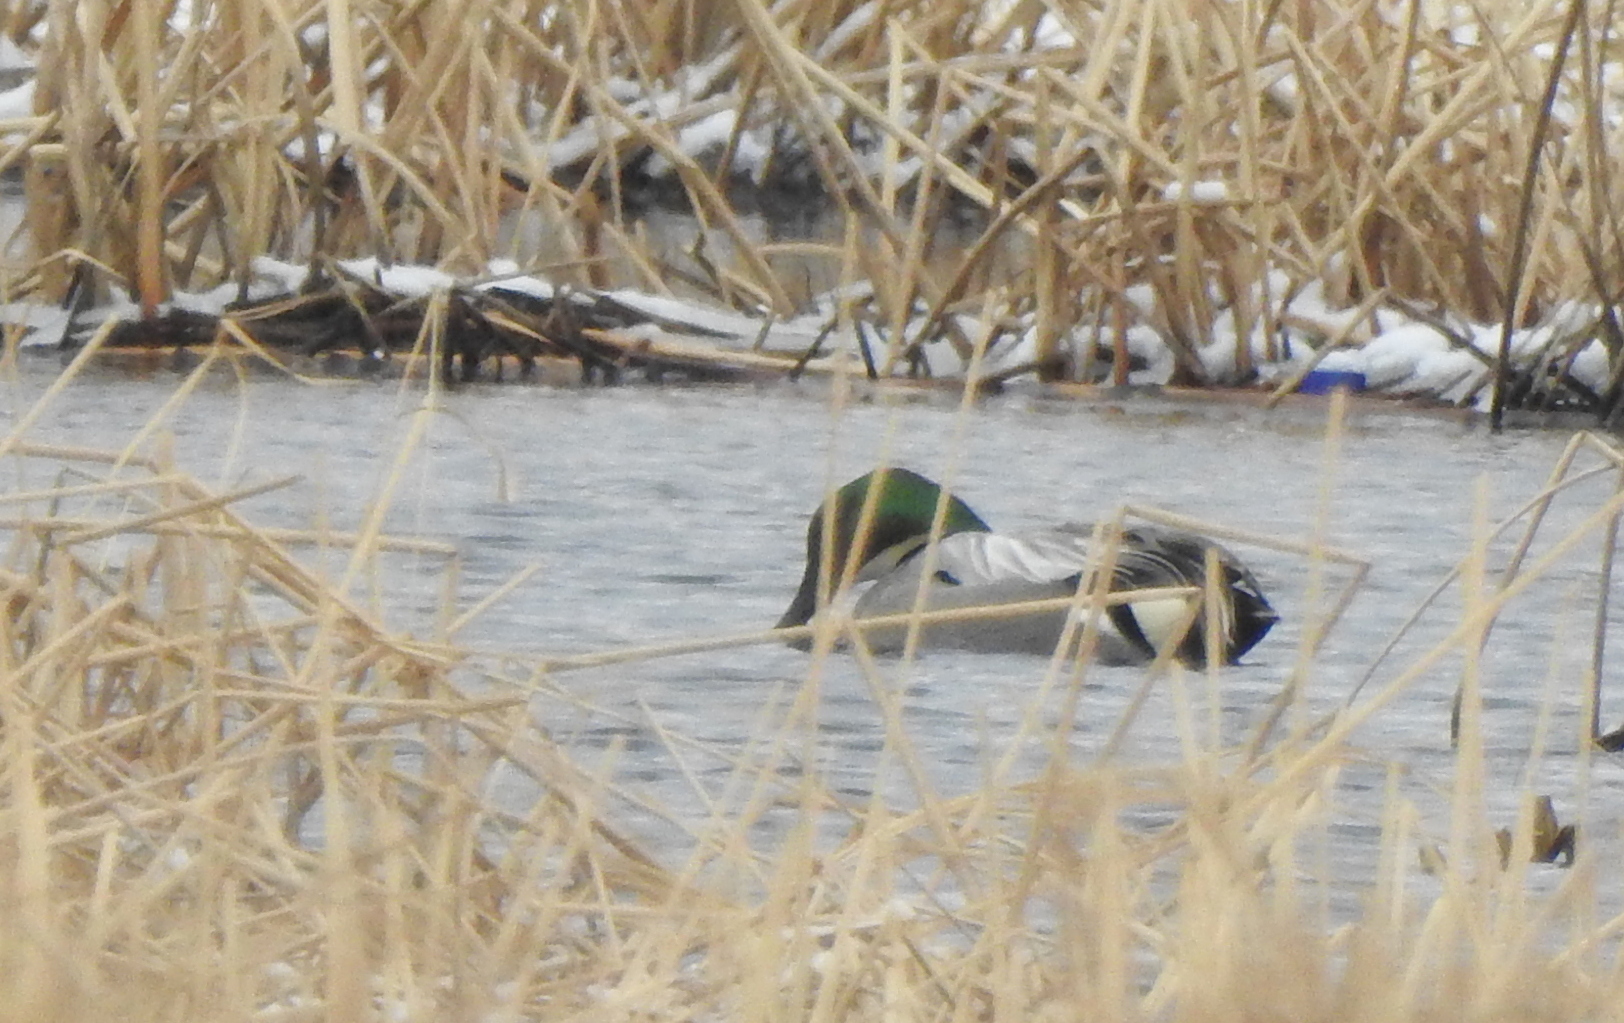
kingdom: Animalia
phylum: Chordata
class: Aves
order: Anseriformes
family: Anatidae
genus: Mareca
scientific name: Mareca falcata
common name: Falcated duck
